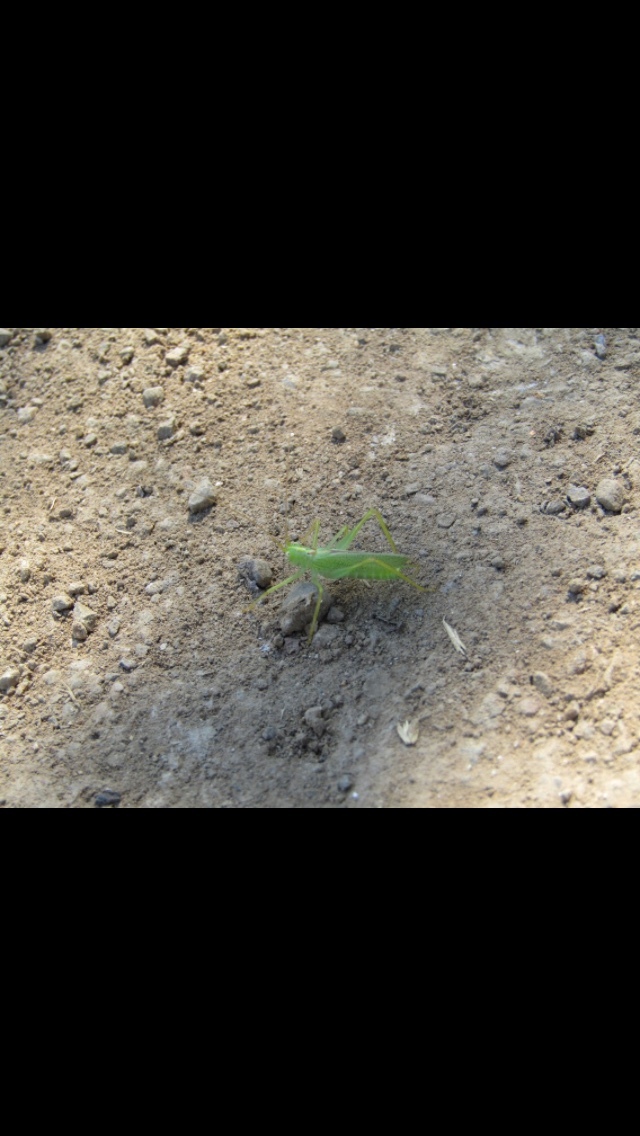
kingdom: Animalia
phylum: Arthropoda
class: Insecta
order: Orthoptera
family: Tettigoniidae
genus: Meconema
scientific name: Meconema thalassinum
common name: Oak bush-cricket
